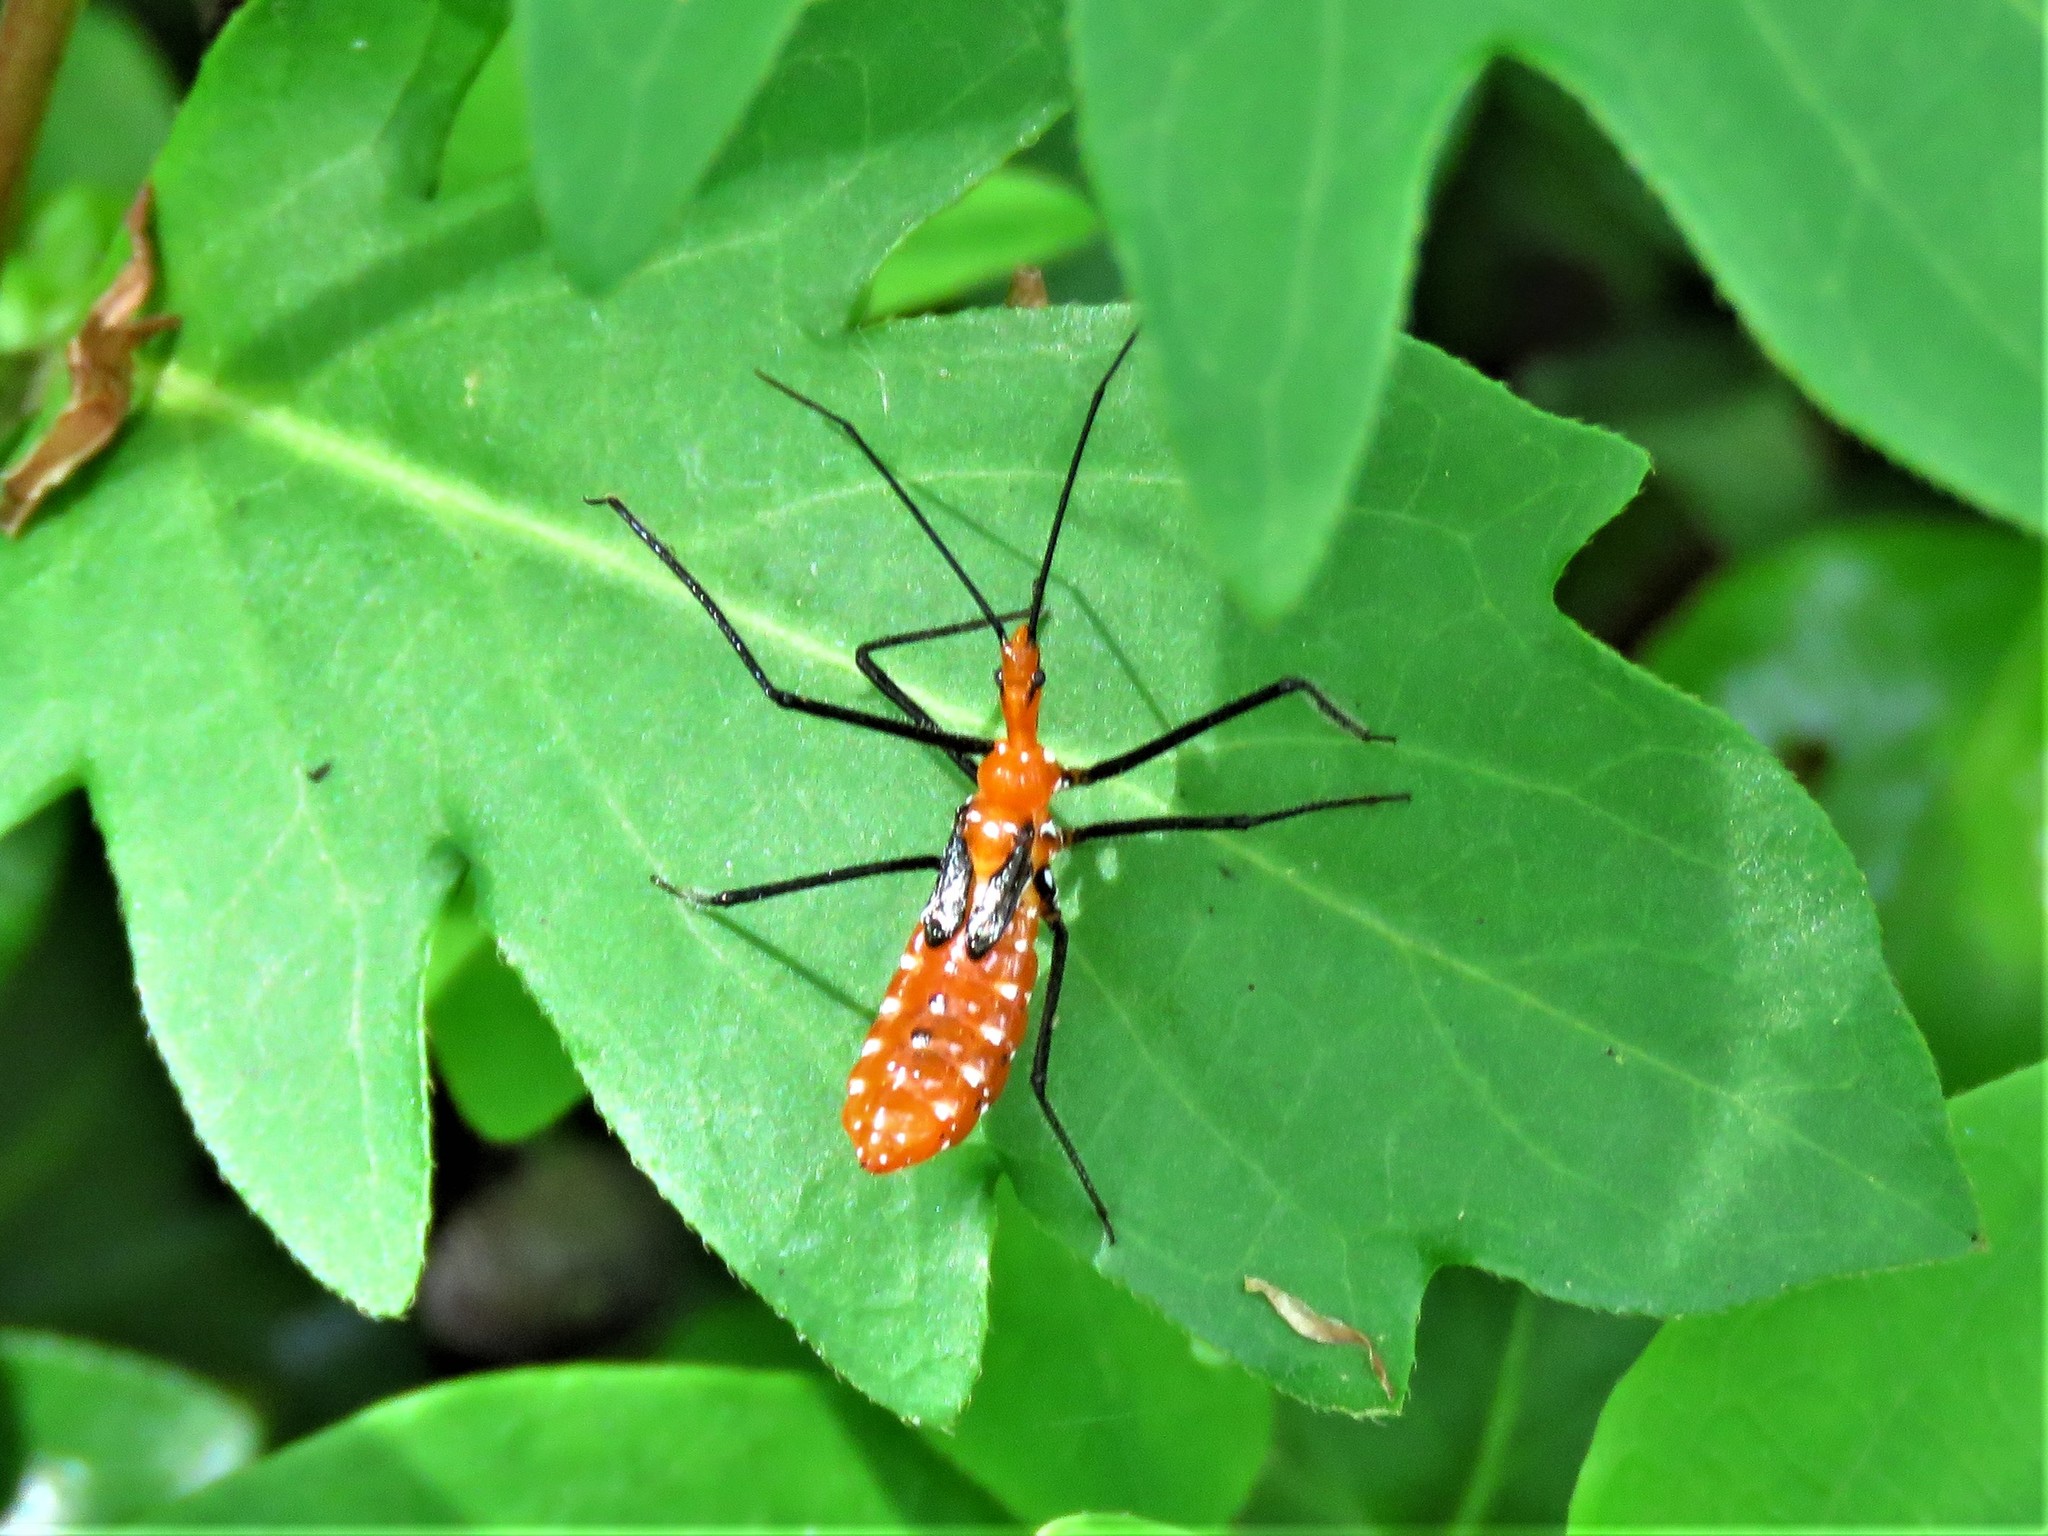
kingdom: Animalia
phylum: Arthropoda
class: Insecta
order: Hemiptera
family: Reduviidae
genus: Zelus
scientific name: Zelus longipes
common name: Milkweed assassin bug
